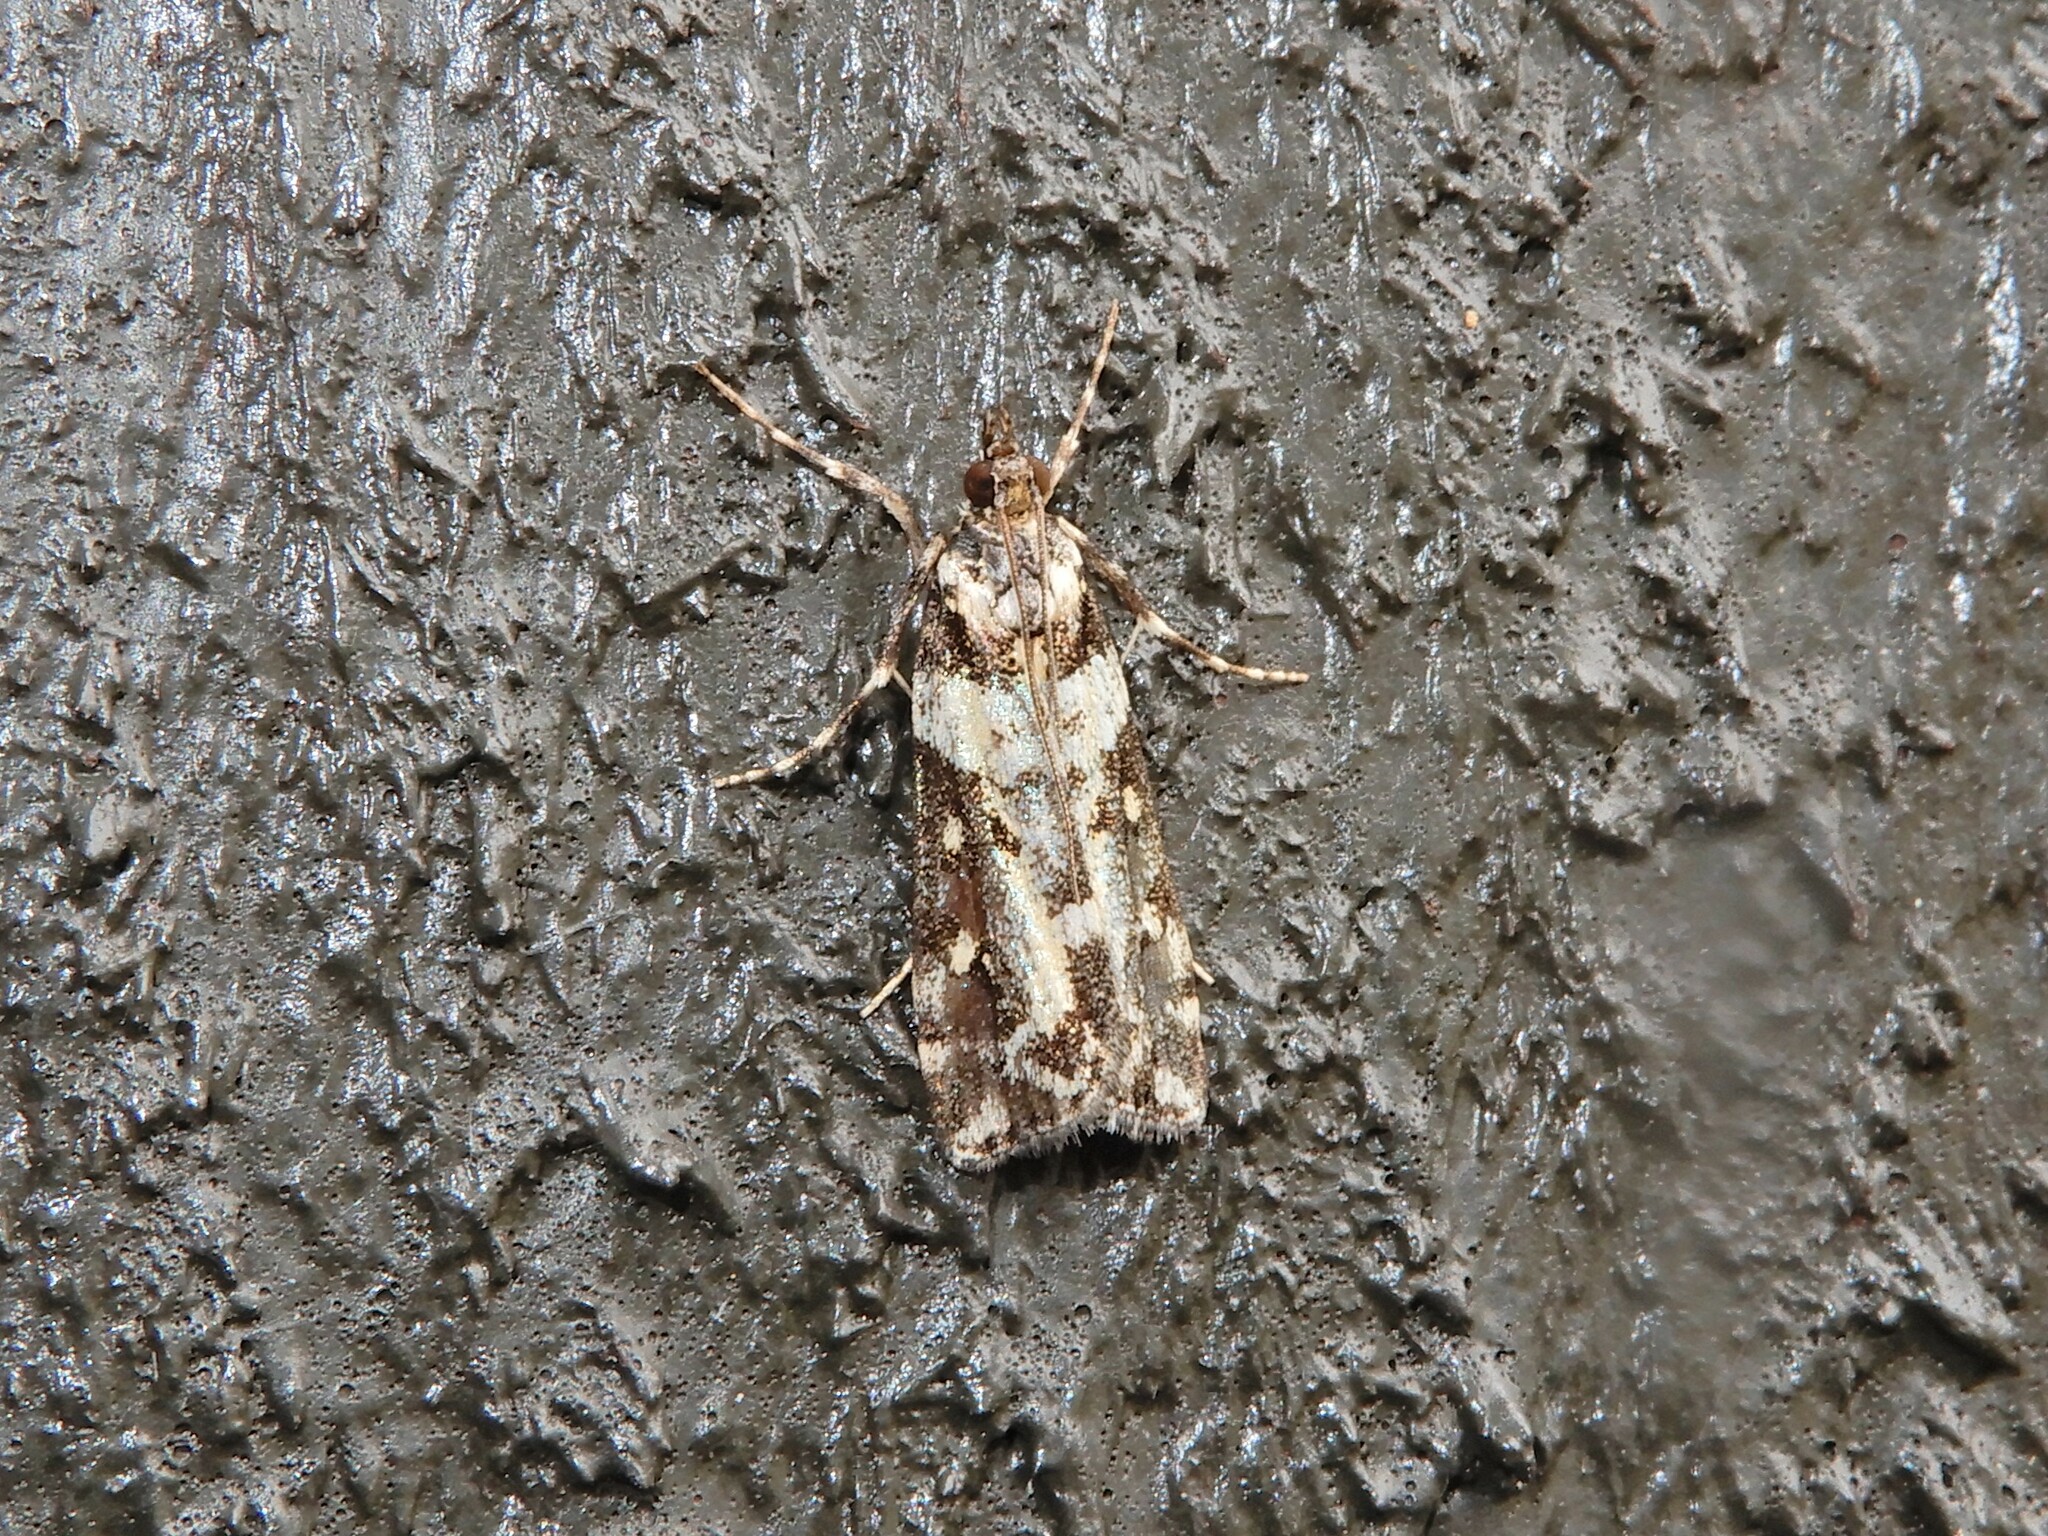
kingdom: Animalia
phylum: Arthropoda
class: Insecta
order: Lepidoptera
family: Crambidae
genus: Eudonia
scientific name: Eudonia diphtheralis
